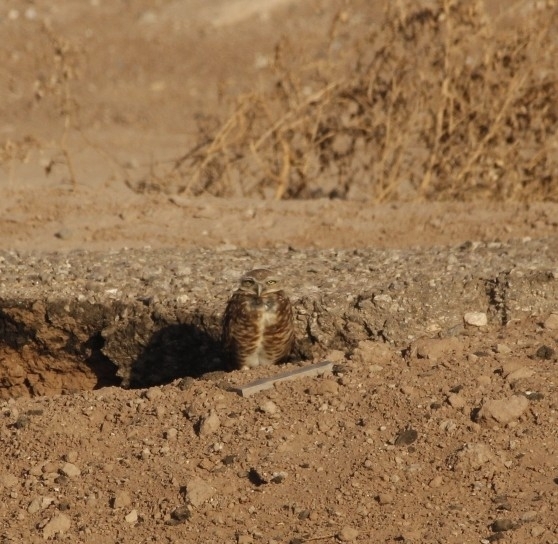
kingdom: Animalia
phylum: Chordata
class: Aves
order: Strigiformes
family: Strigidae
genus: Athene
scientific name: Athene cunicularia
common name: Burrowing owl
